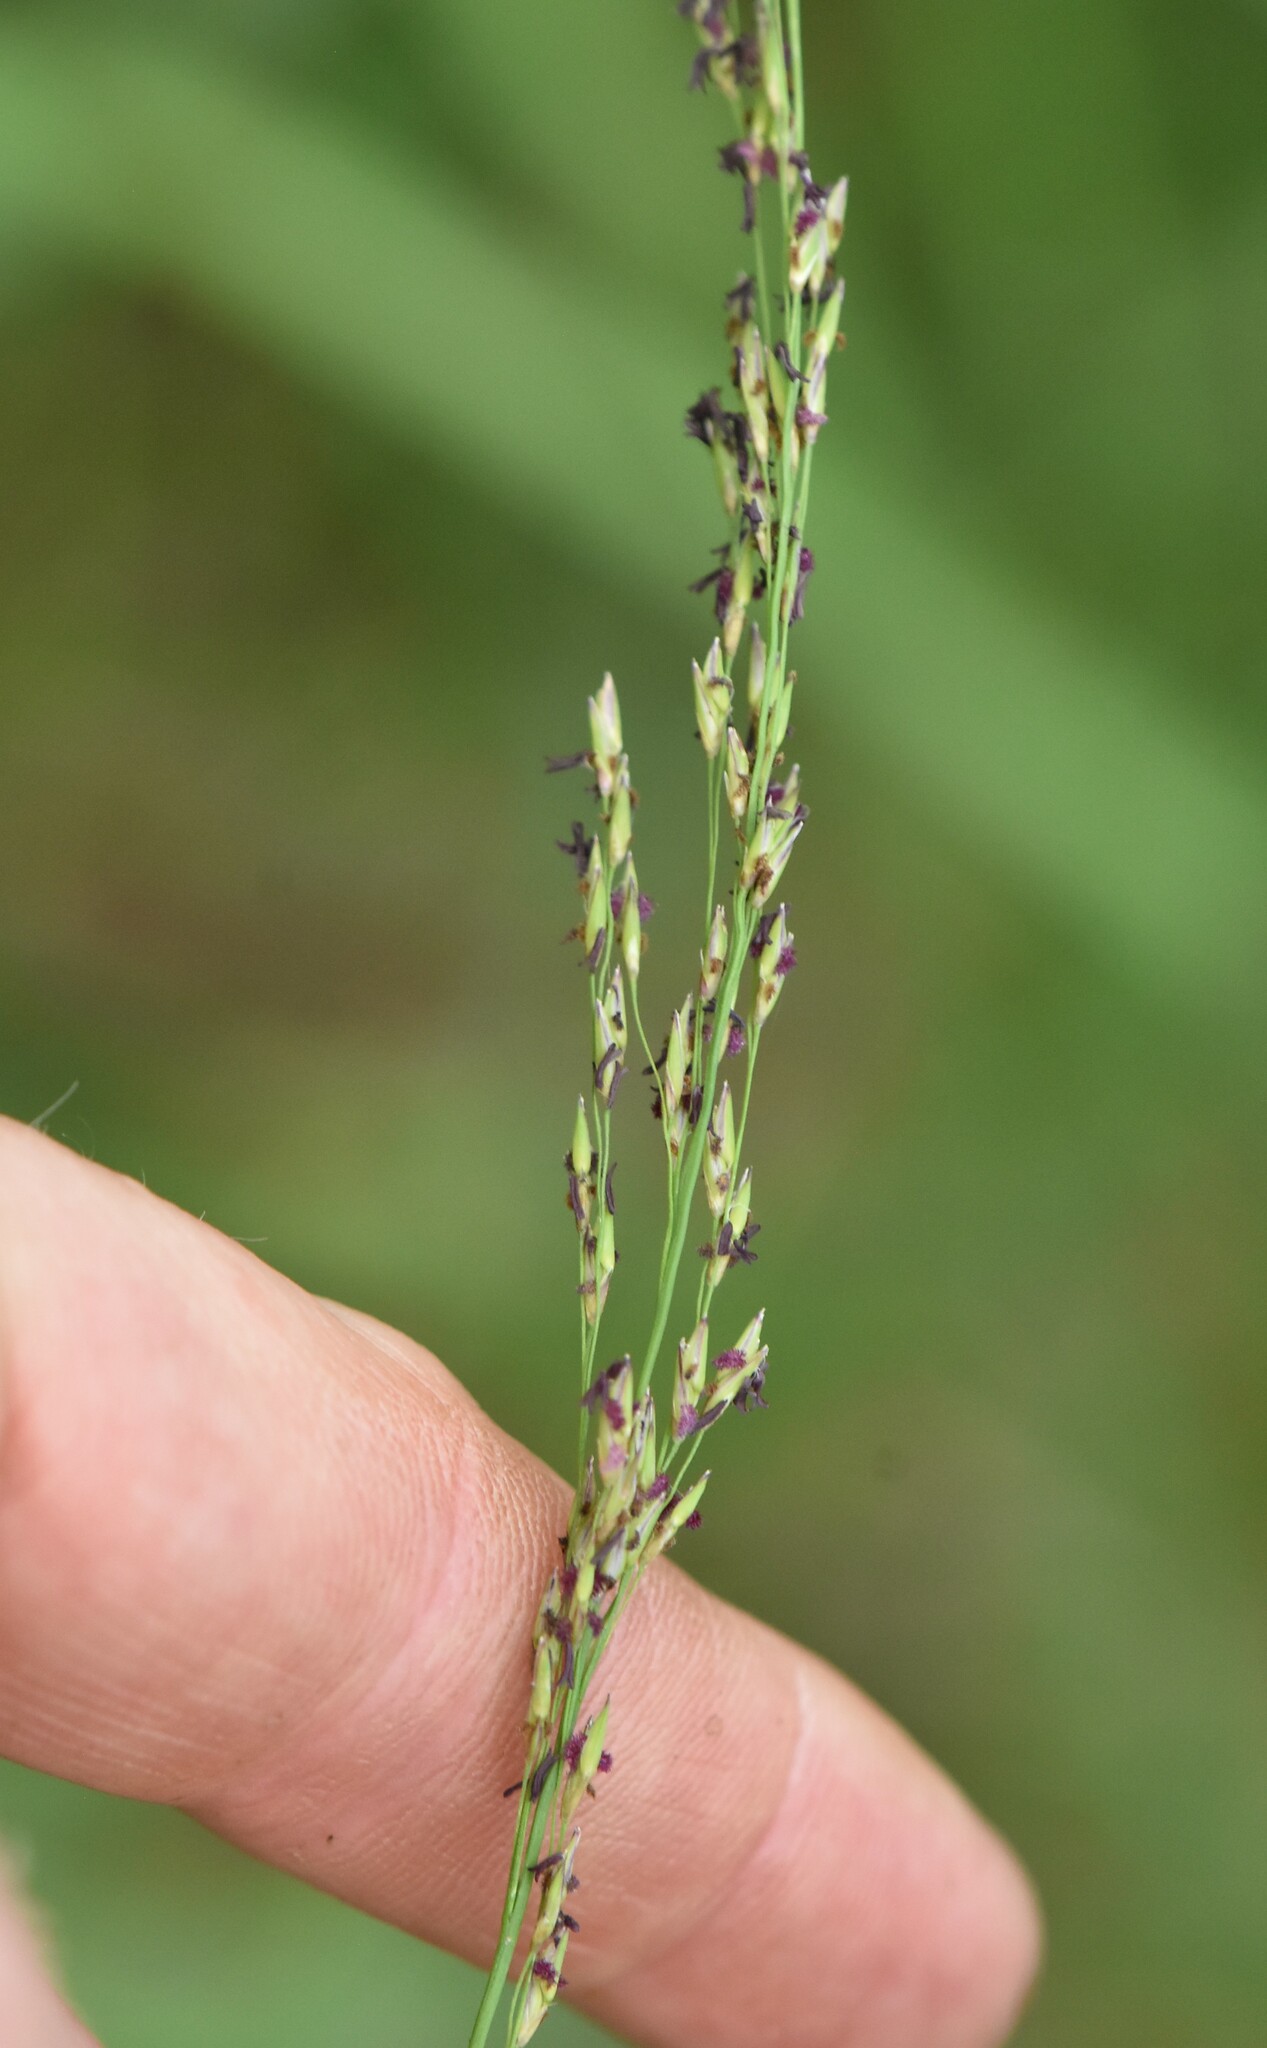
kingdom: Plantae
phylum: Tracheophyta
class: Liliopsida
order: Poales
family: Poaceae
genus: Molinia
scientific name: Molinia caerulea
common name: Purple moor-grass
